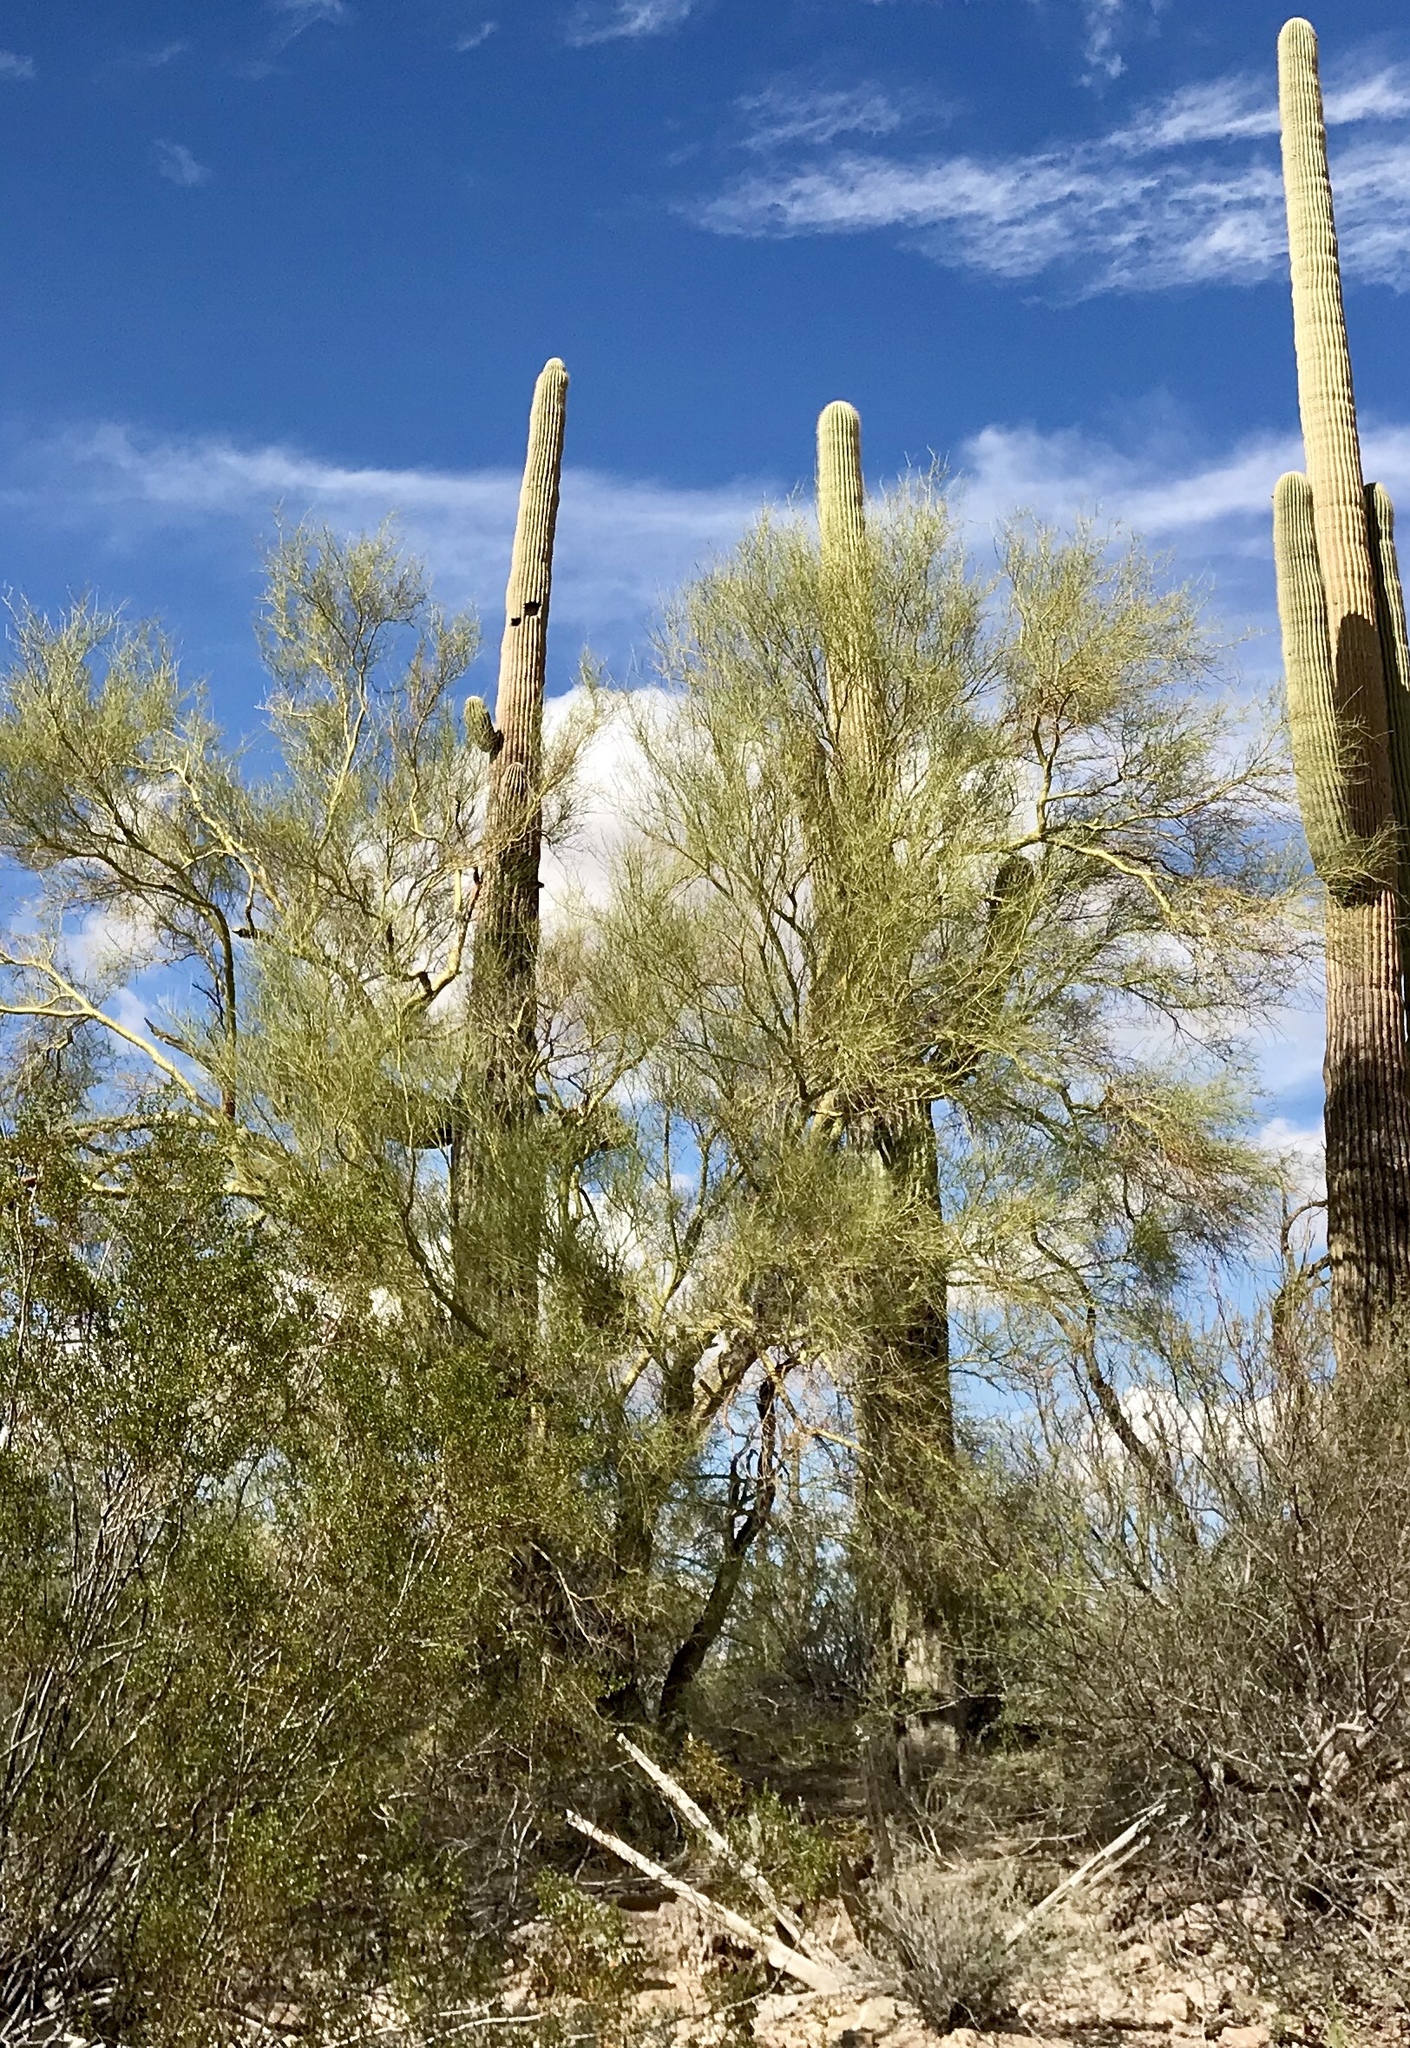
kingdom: Plantae
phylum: Tracheophyta
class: Magnoliopsida
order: Fabales
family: Fabaceae
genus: Parkinsonia
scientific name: Parkinsonia microphylla
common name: Yellow paloverde
